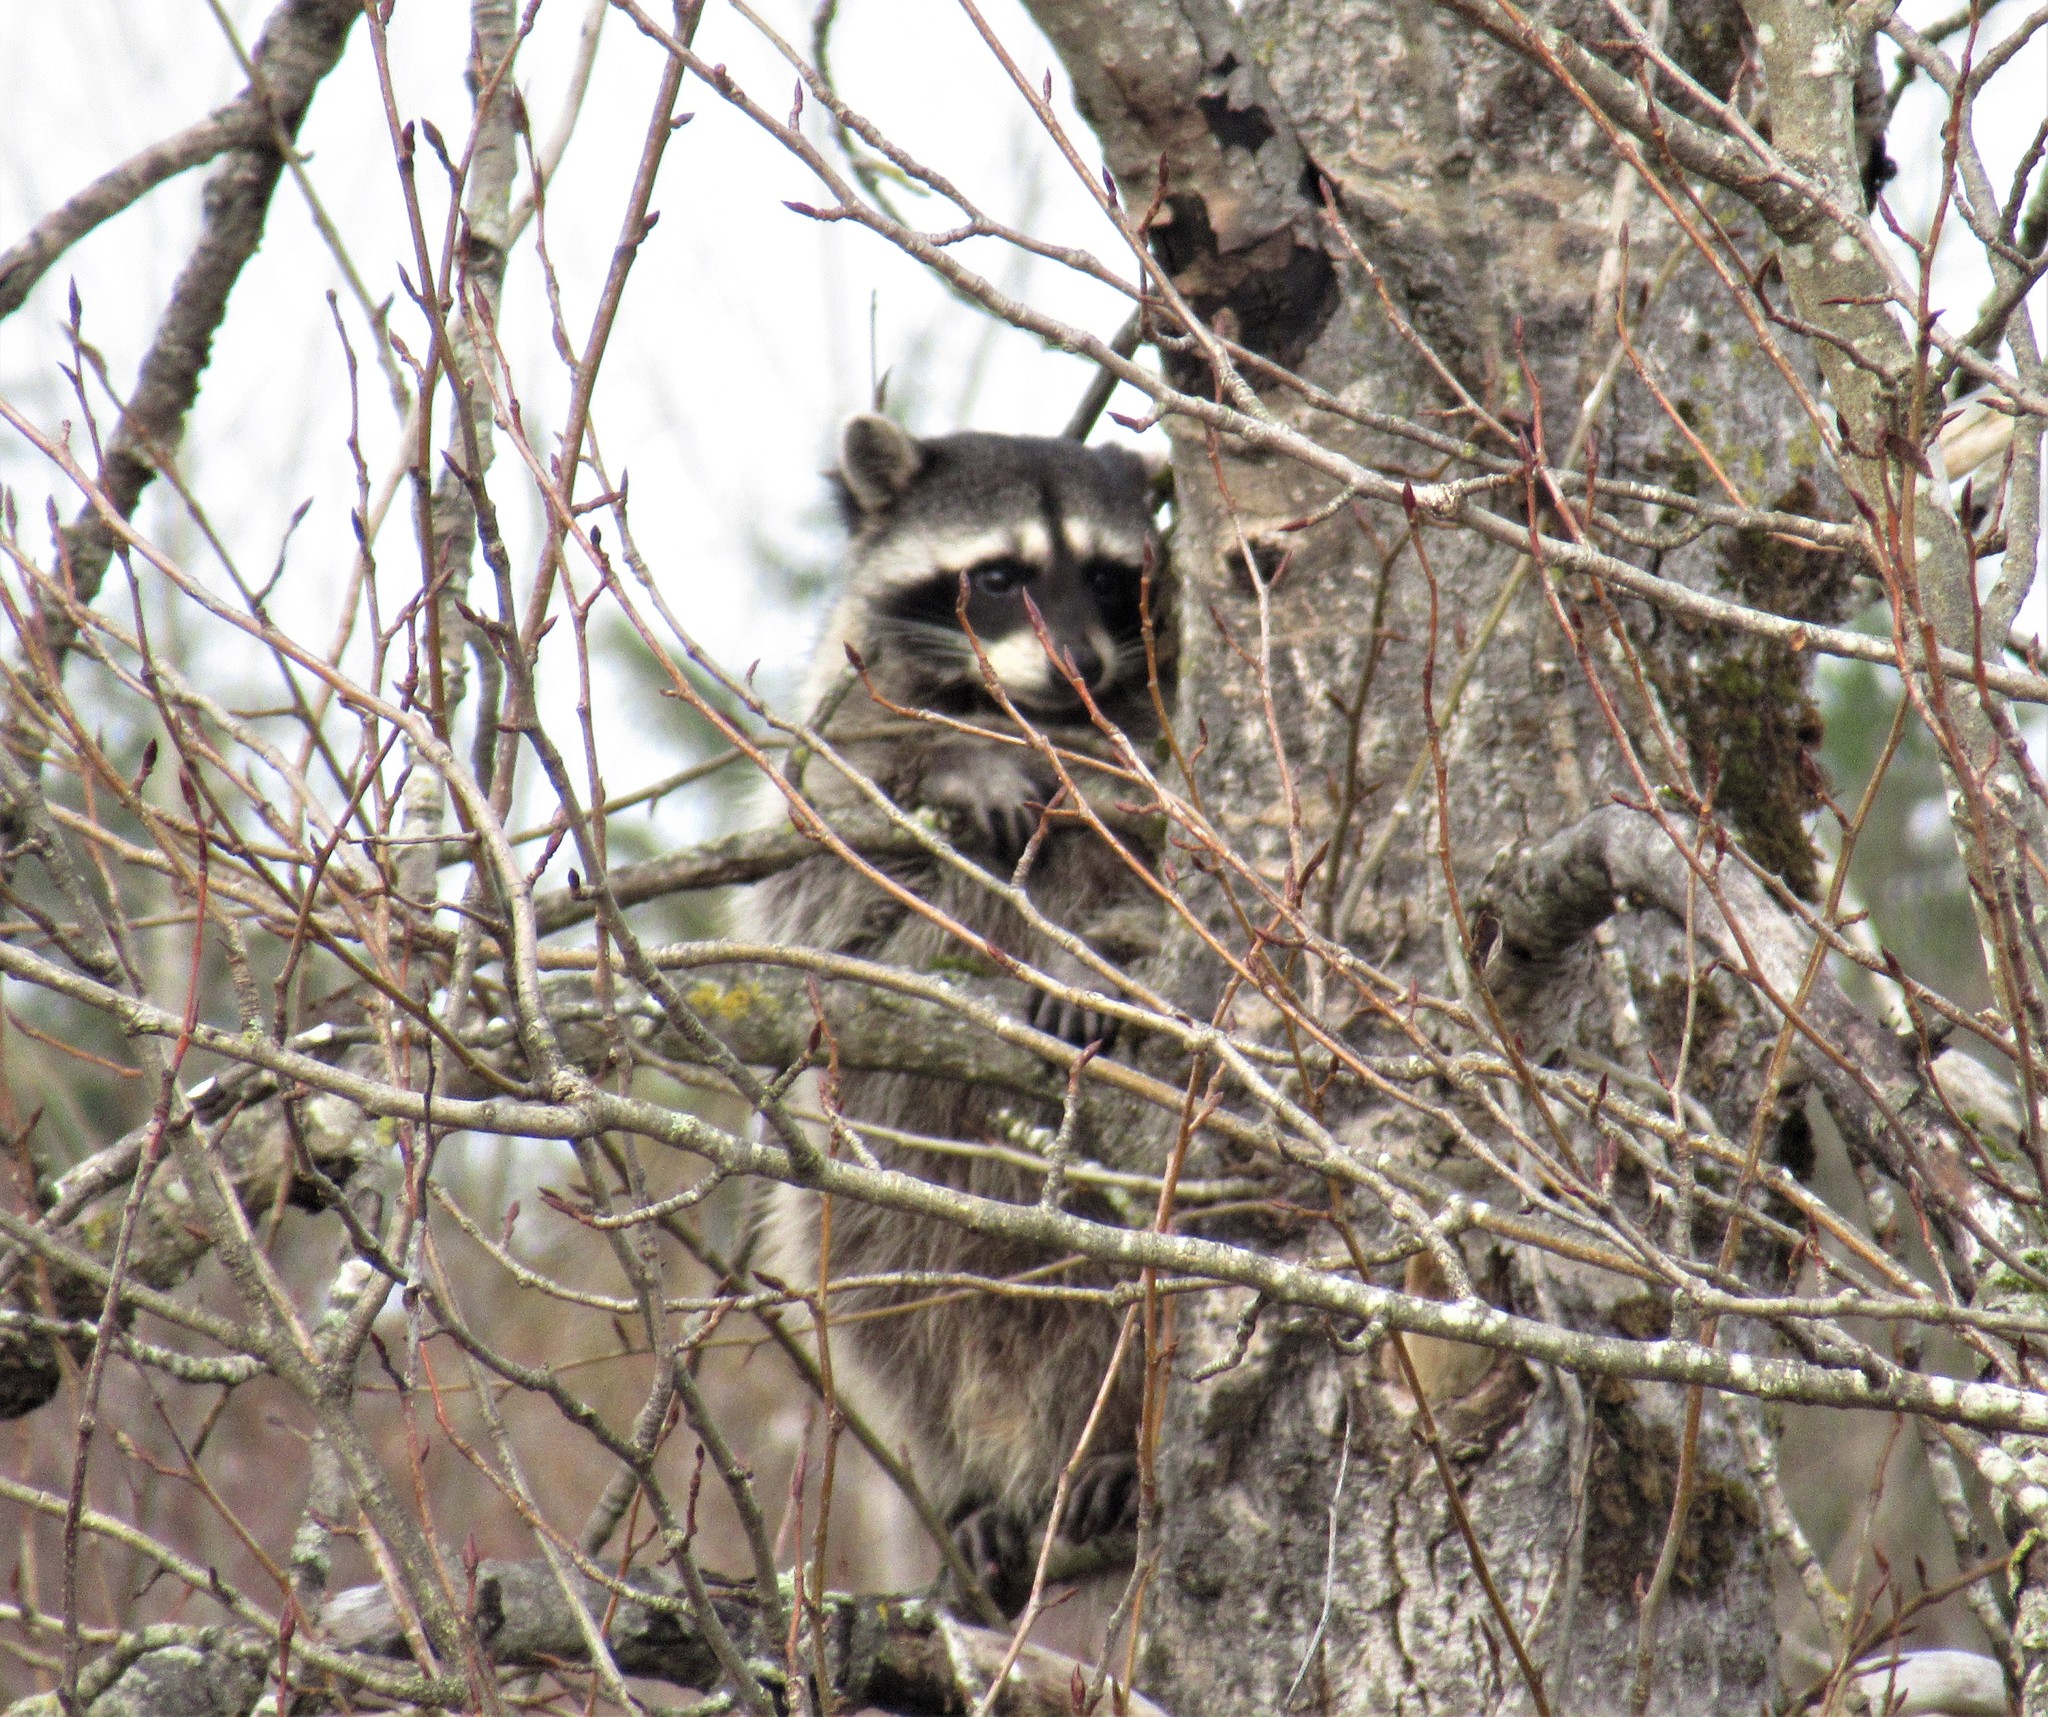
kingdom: Animalia
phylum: Chordata
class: Mammalia
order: Carnivora
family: Procyonidae
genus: Procyon
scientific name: Procyon lotor
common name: Raccoon
